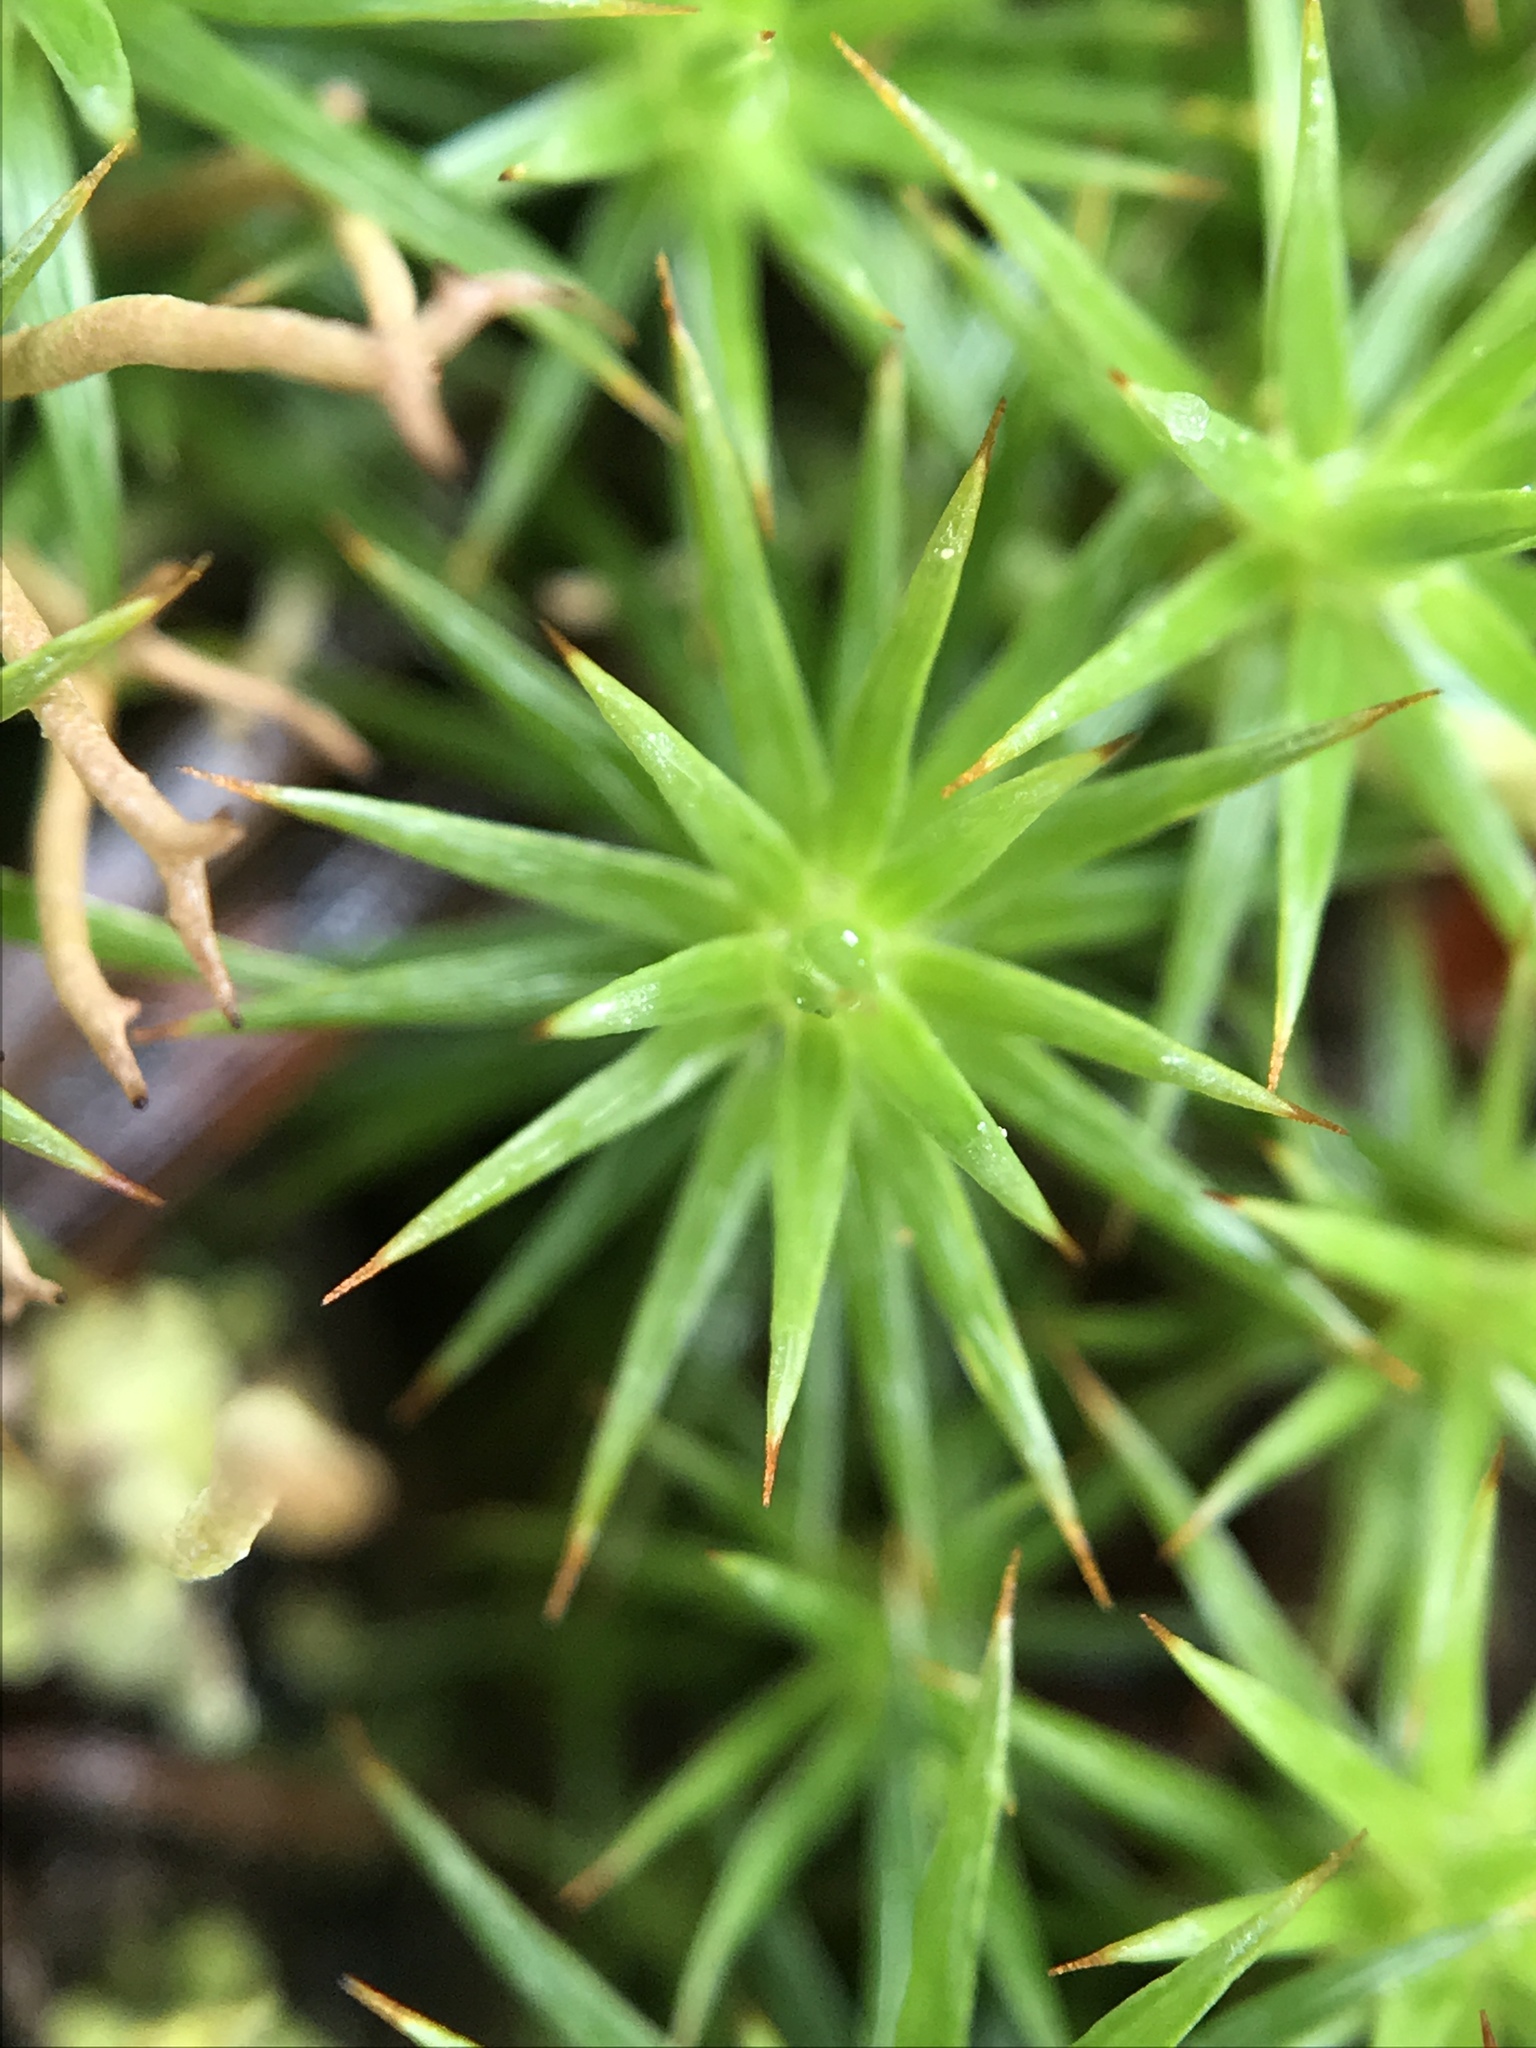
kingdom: Plantae
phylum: Bryophyta
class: Polytrichopsida
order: Polytrichales
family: Polytrichaceae
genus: Polytrichum
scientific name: Polytrichum juniperinum
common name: Juniper haircap moss
